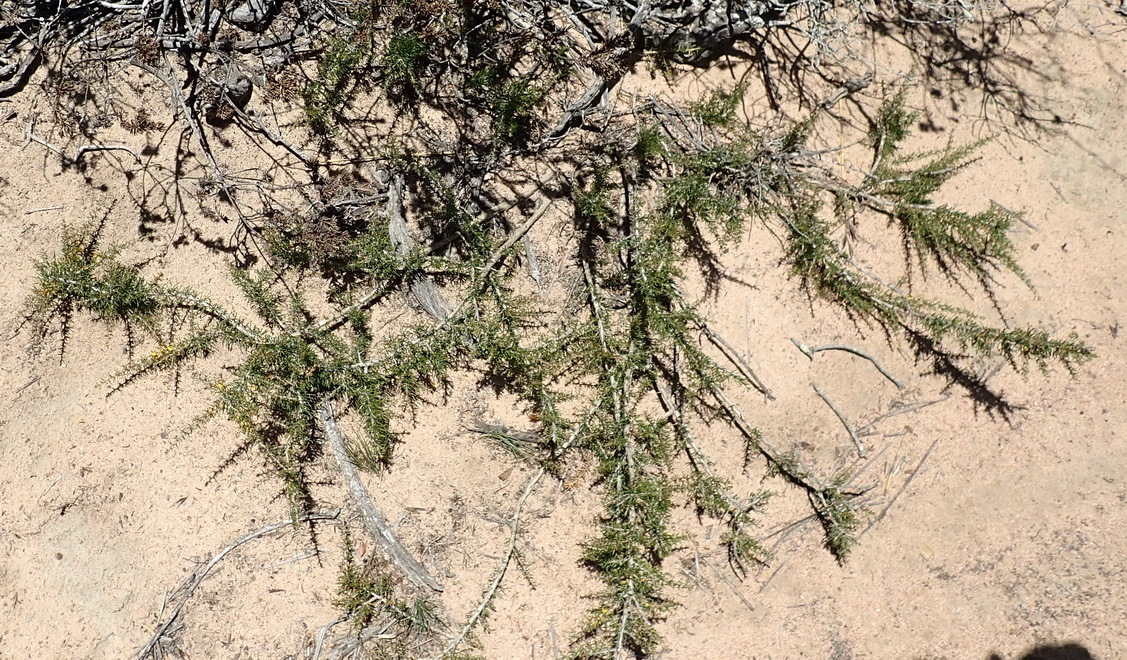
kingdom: Plantae
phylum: Tracheophyta
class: Magnoliopsida
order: Fabales
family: Fabaceae
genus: Aspalathus
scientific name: Aspalathus spinosa
